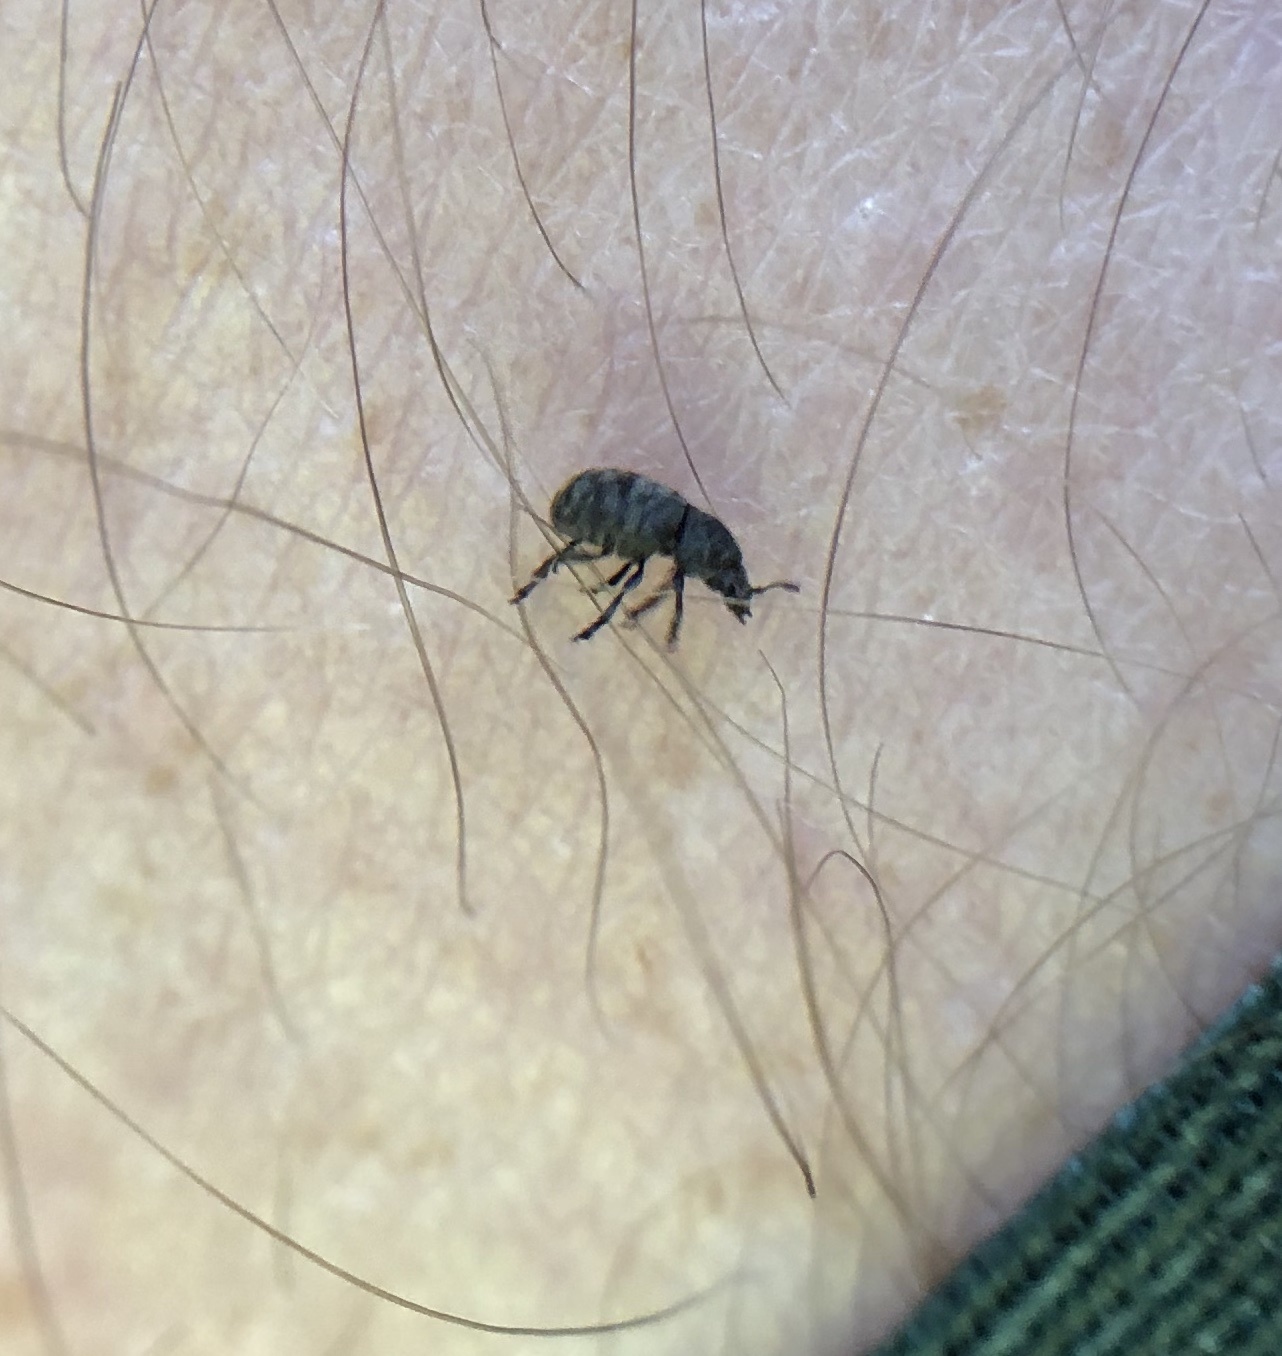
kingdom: Animalia
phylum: Arthropoda
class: Insecta
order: Coleoptera
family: Anthribidae
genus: Anthribus
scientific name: Anthribus nebulosus
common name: Fungus weevil
